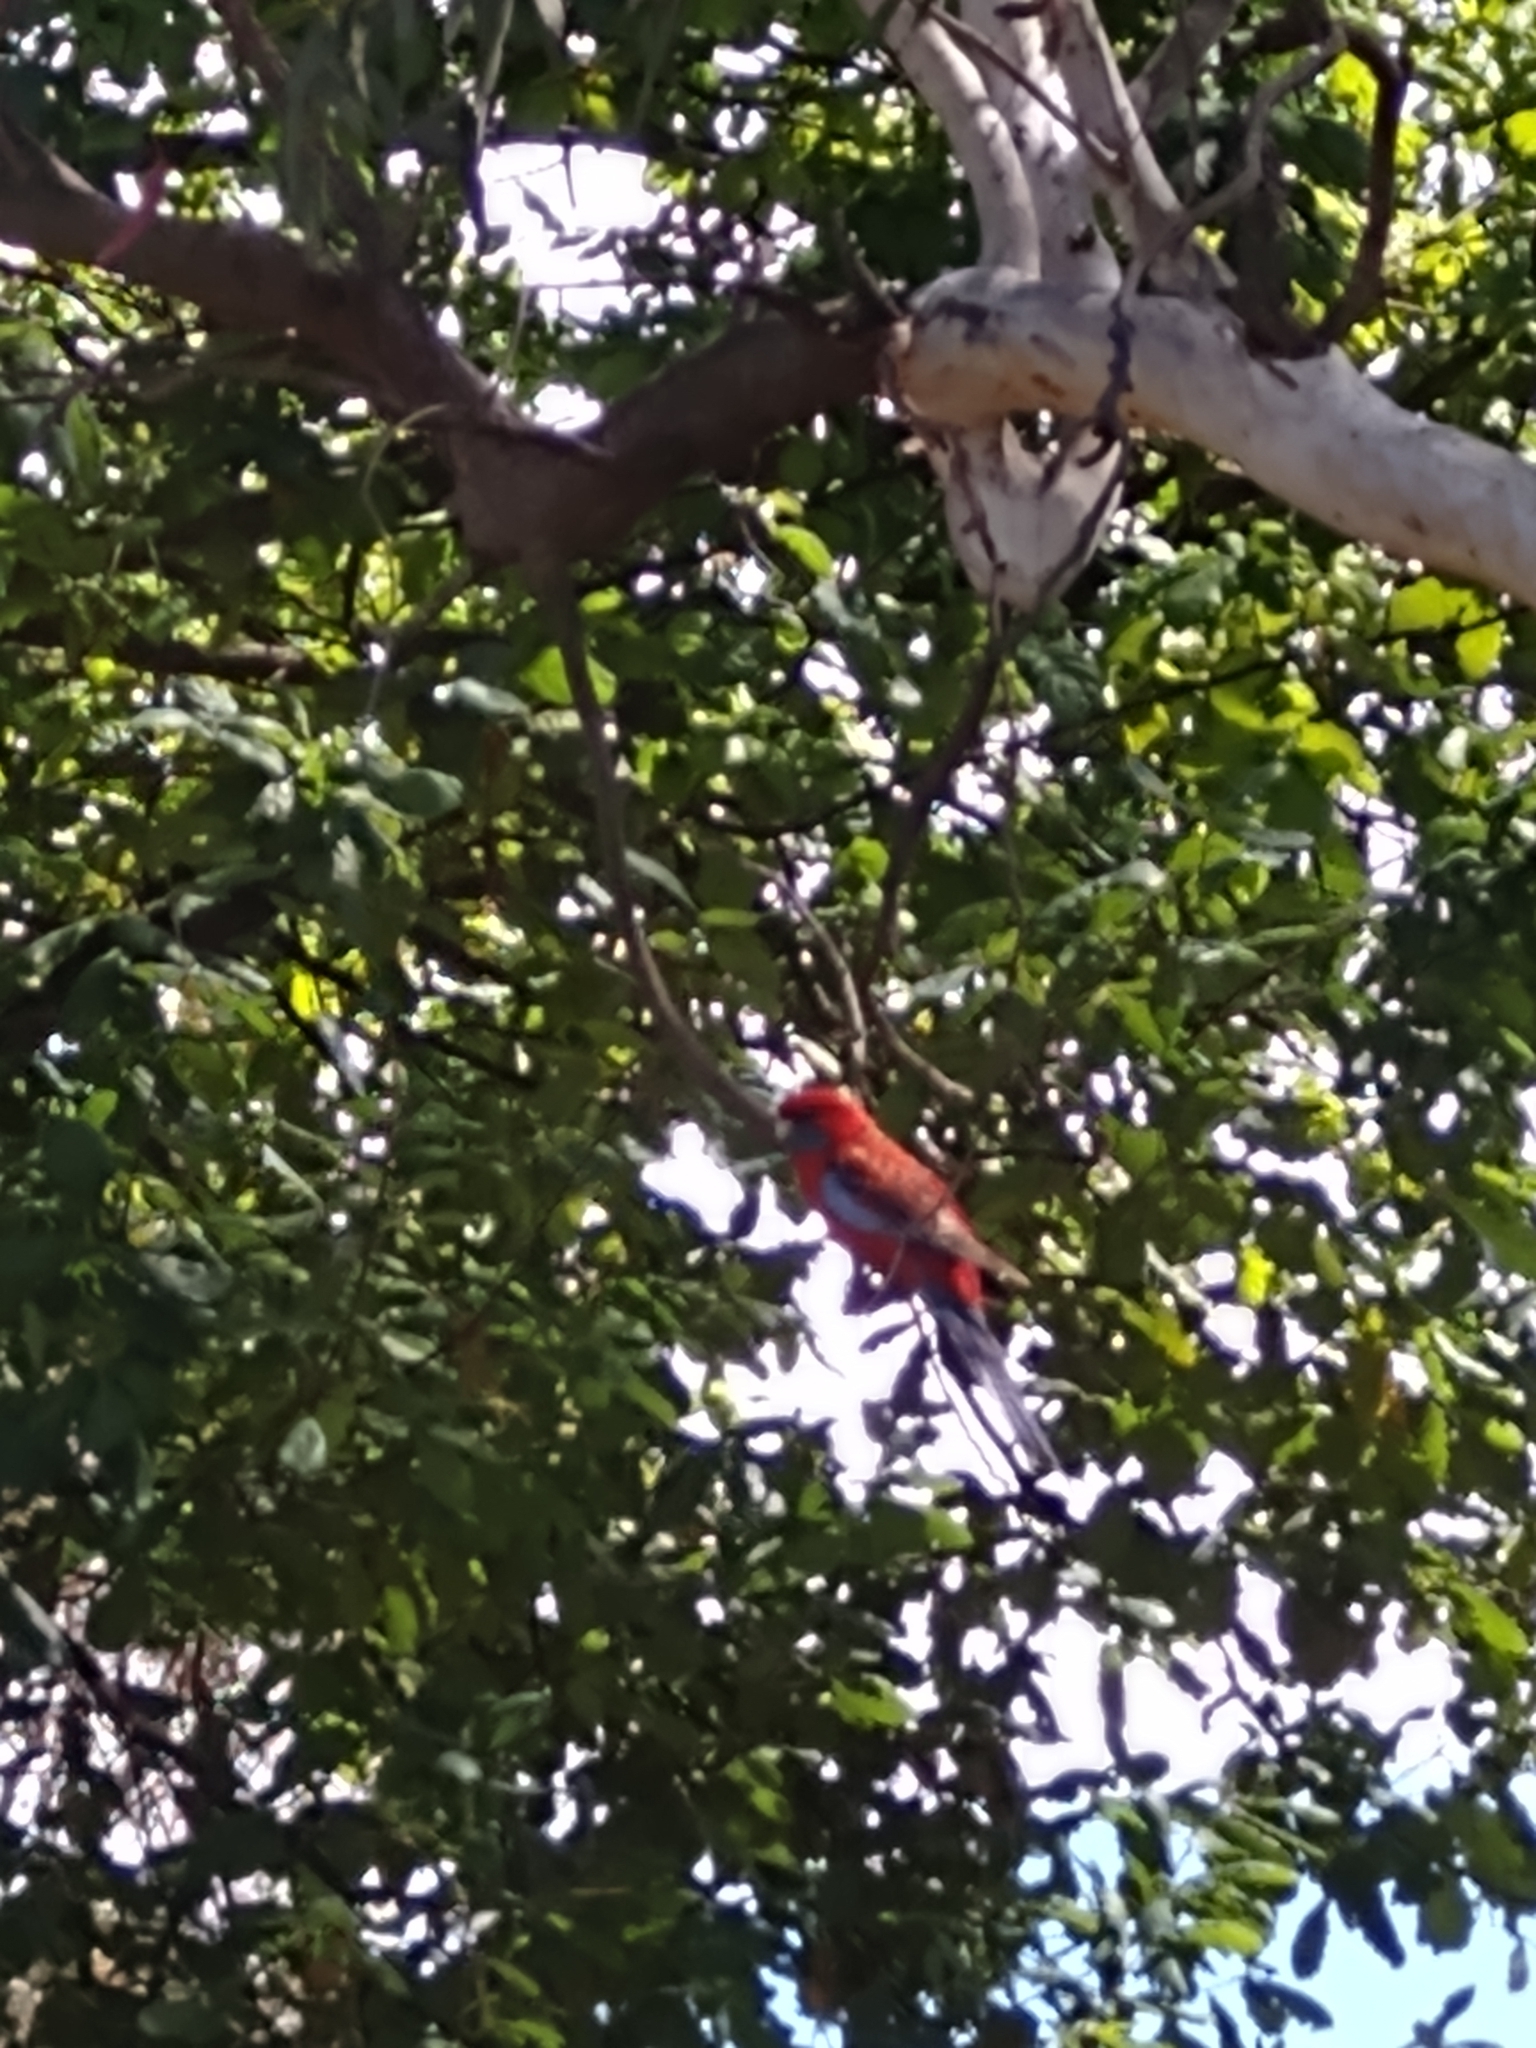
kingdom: Animalia
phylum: Chordata
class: Aves
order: Psittaciformes
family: Psittacidae
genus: Platycercus
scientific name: Platycercus elegans
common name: Crimson rosella
